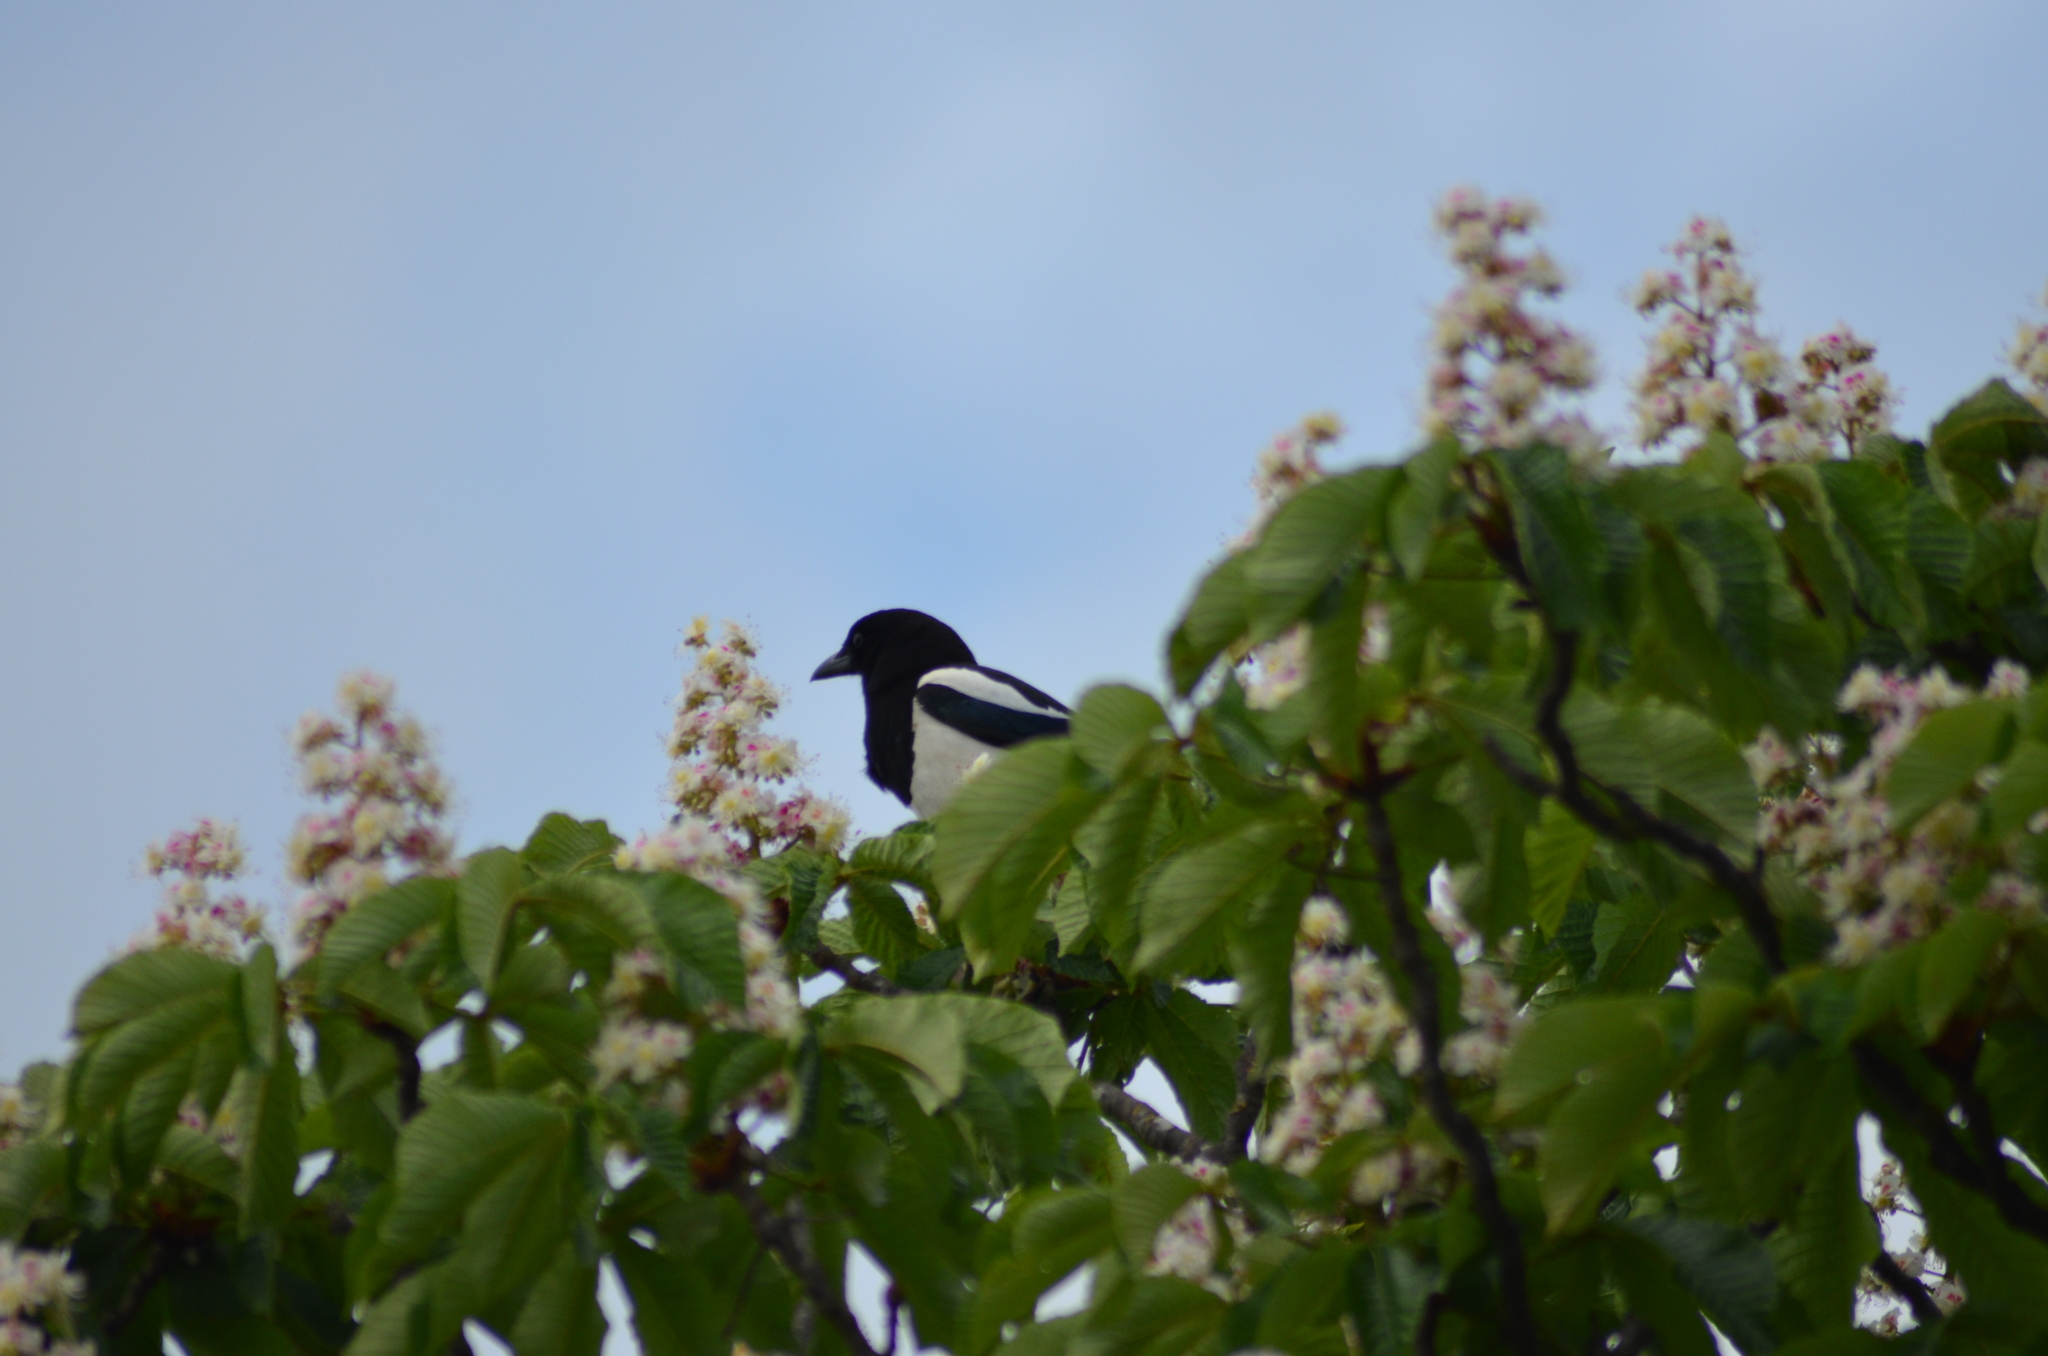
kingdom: Animalia
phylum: Chordata
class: Aves
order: Passeriformes
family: Corvidae
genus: Pica
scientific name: Pica pica
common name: Eurasian magpie
